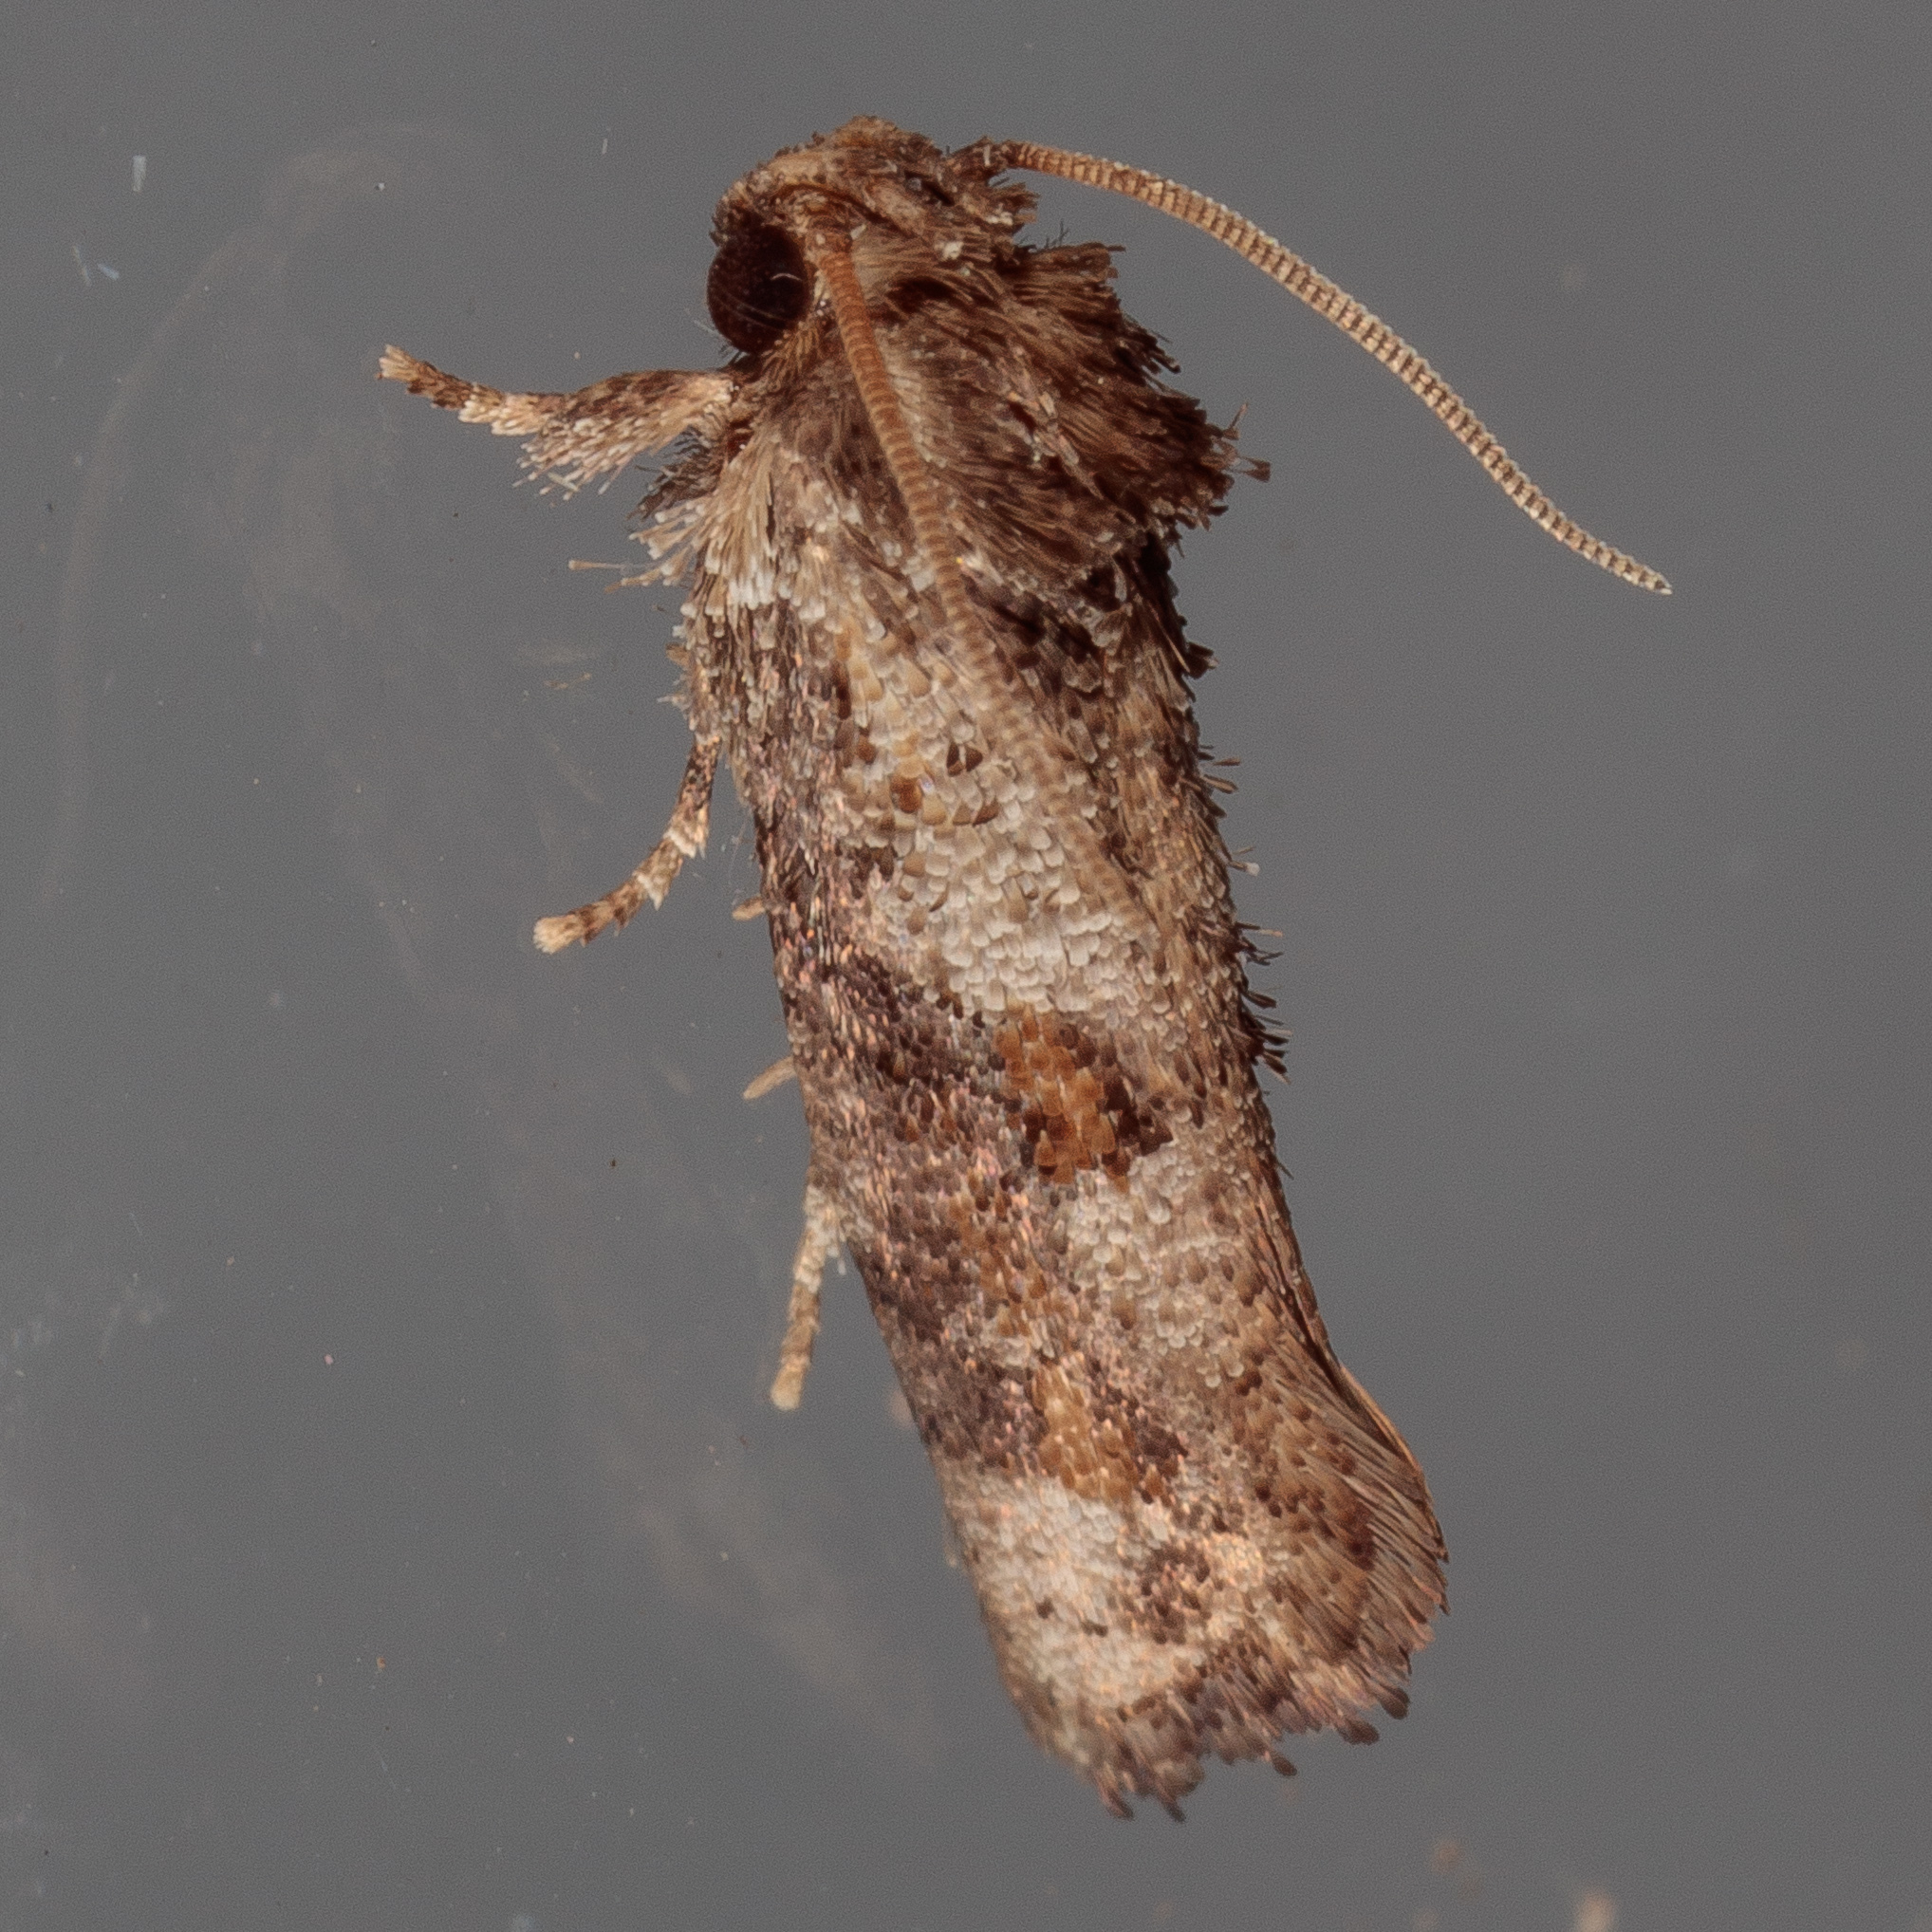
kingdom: Animalia
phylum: Arthropoda
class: Insecta
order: Lepidoptera
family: Tineidae
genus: Acrolophus
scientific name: Acrolophus piger
